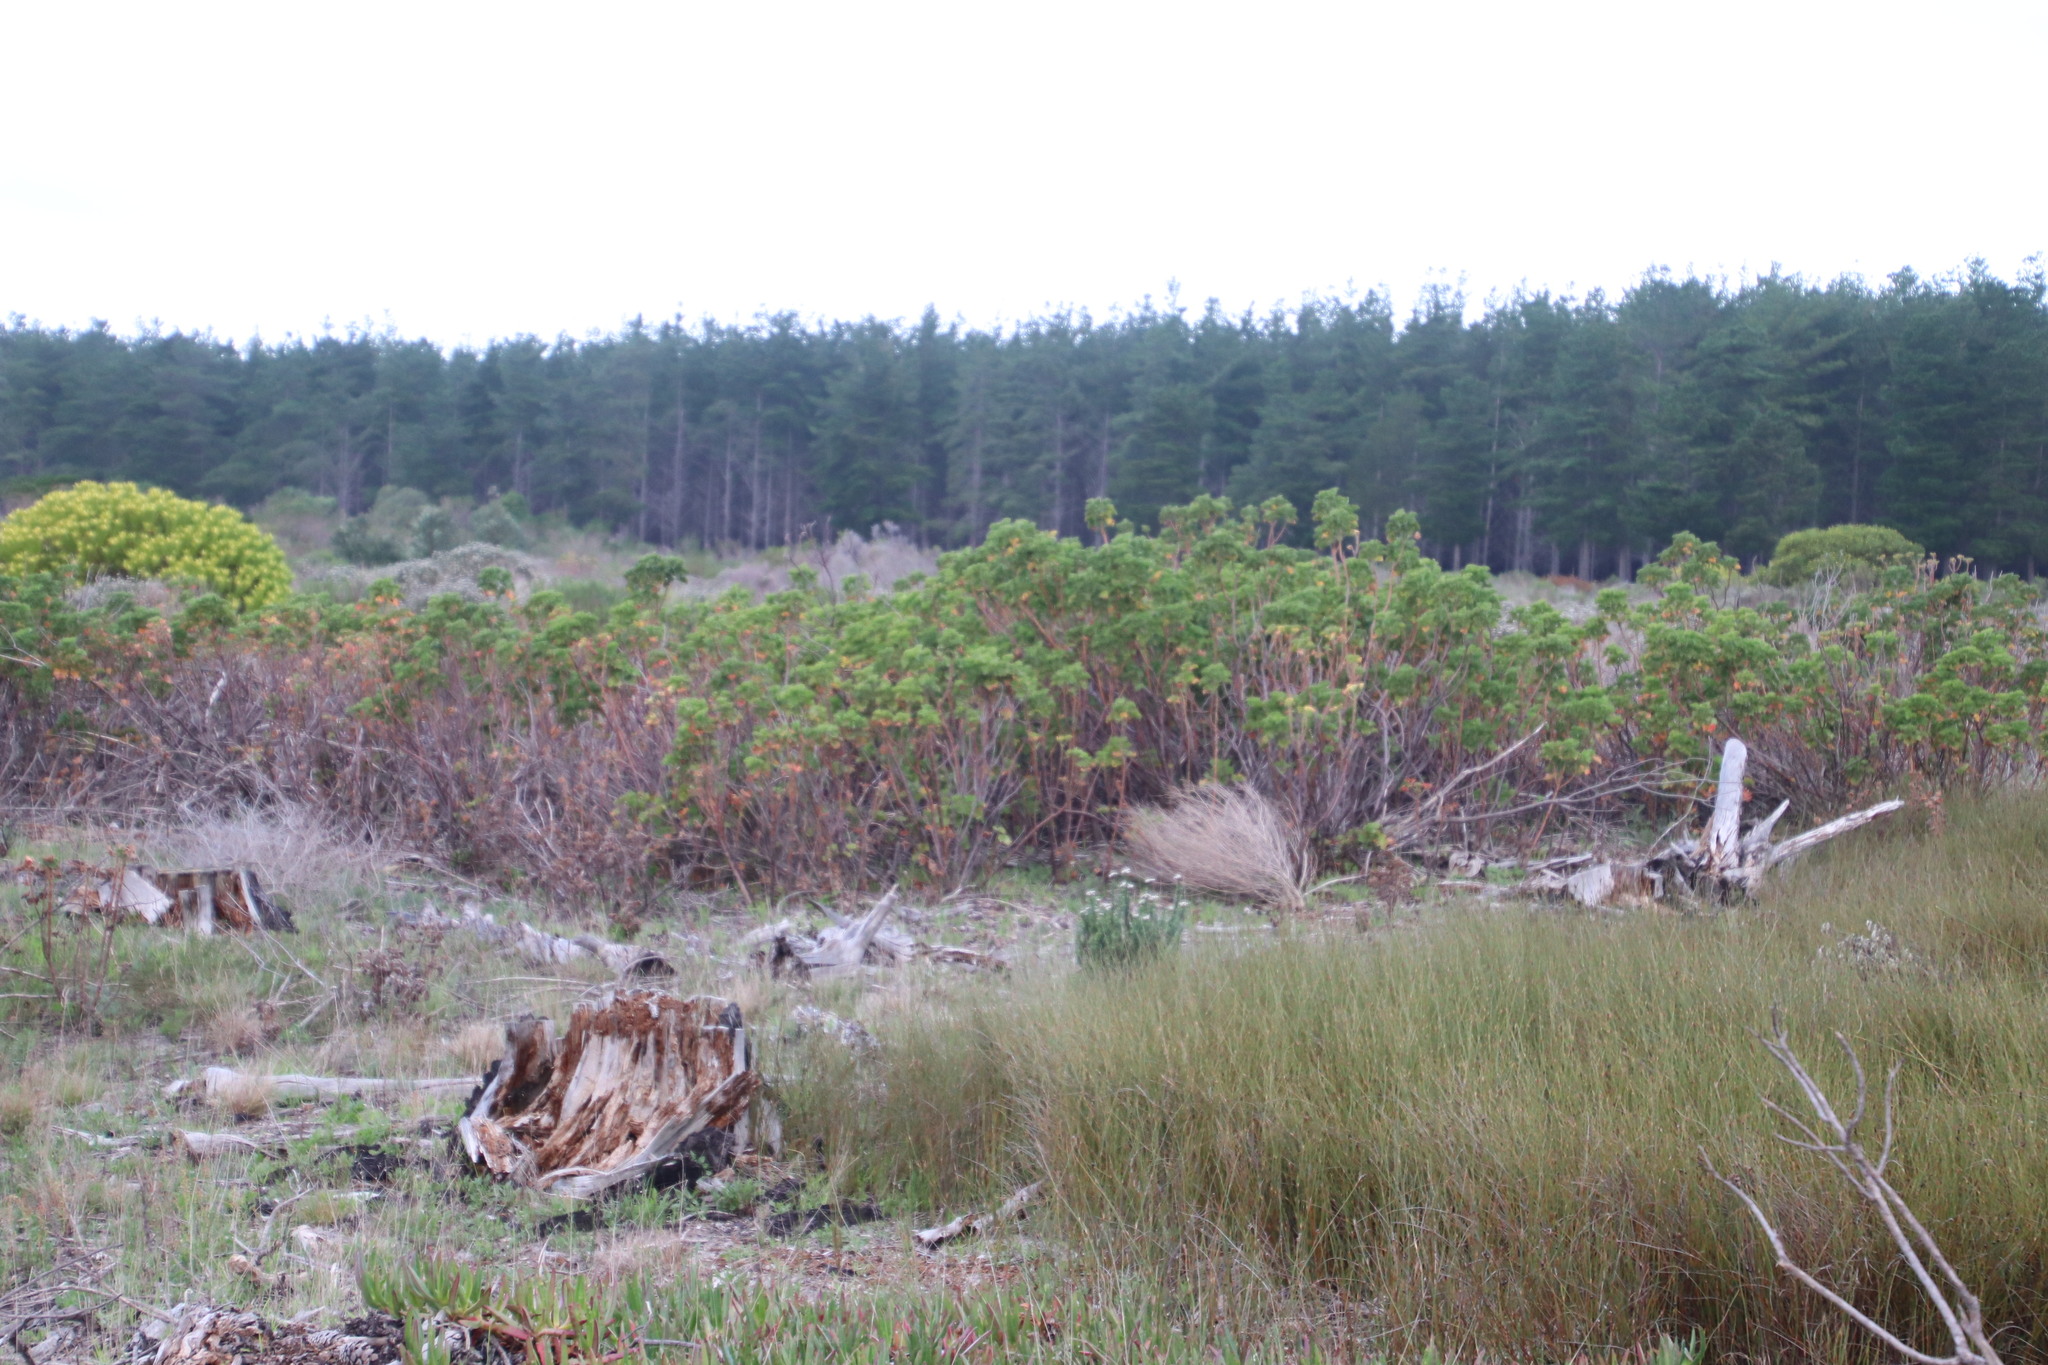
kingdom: Plantae
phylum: Tracheophyta
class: Magnoliopsida
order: Geraniales
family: Geraniaceae
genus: Pelargonium
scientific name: Pelargonium cucullatum
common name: Tree pelargonium
